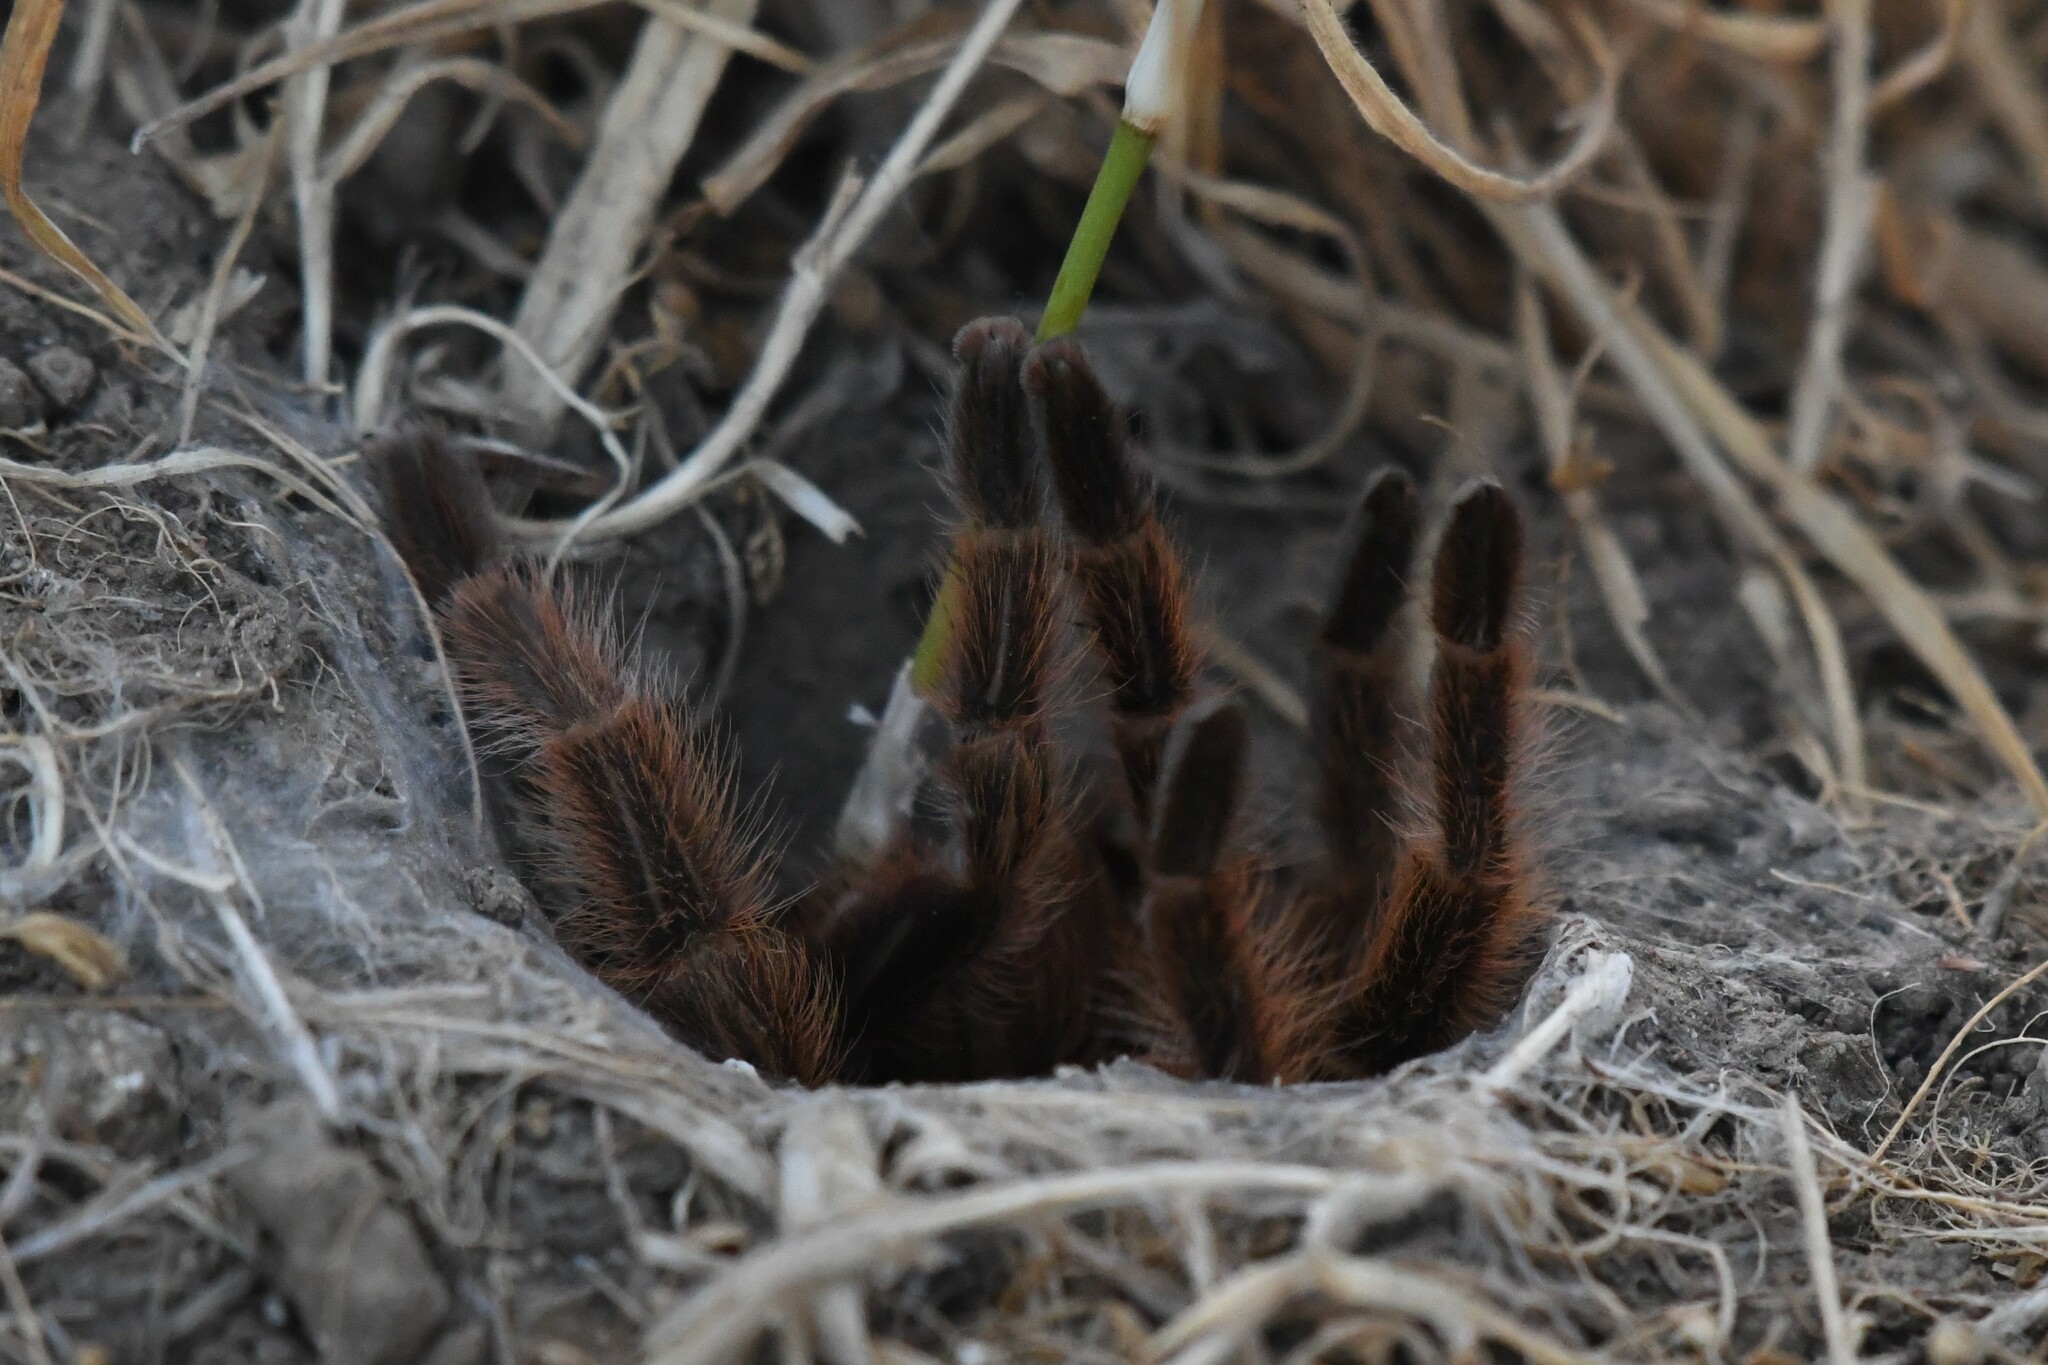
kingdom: Animalia
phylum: Arthropoda
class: Arachnida
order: Araneae
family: Theraphosidae
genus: Grammostola
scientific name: Grammostola rosea
